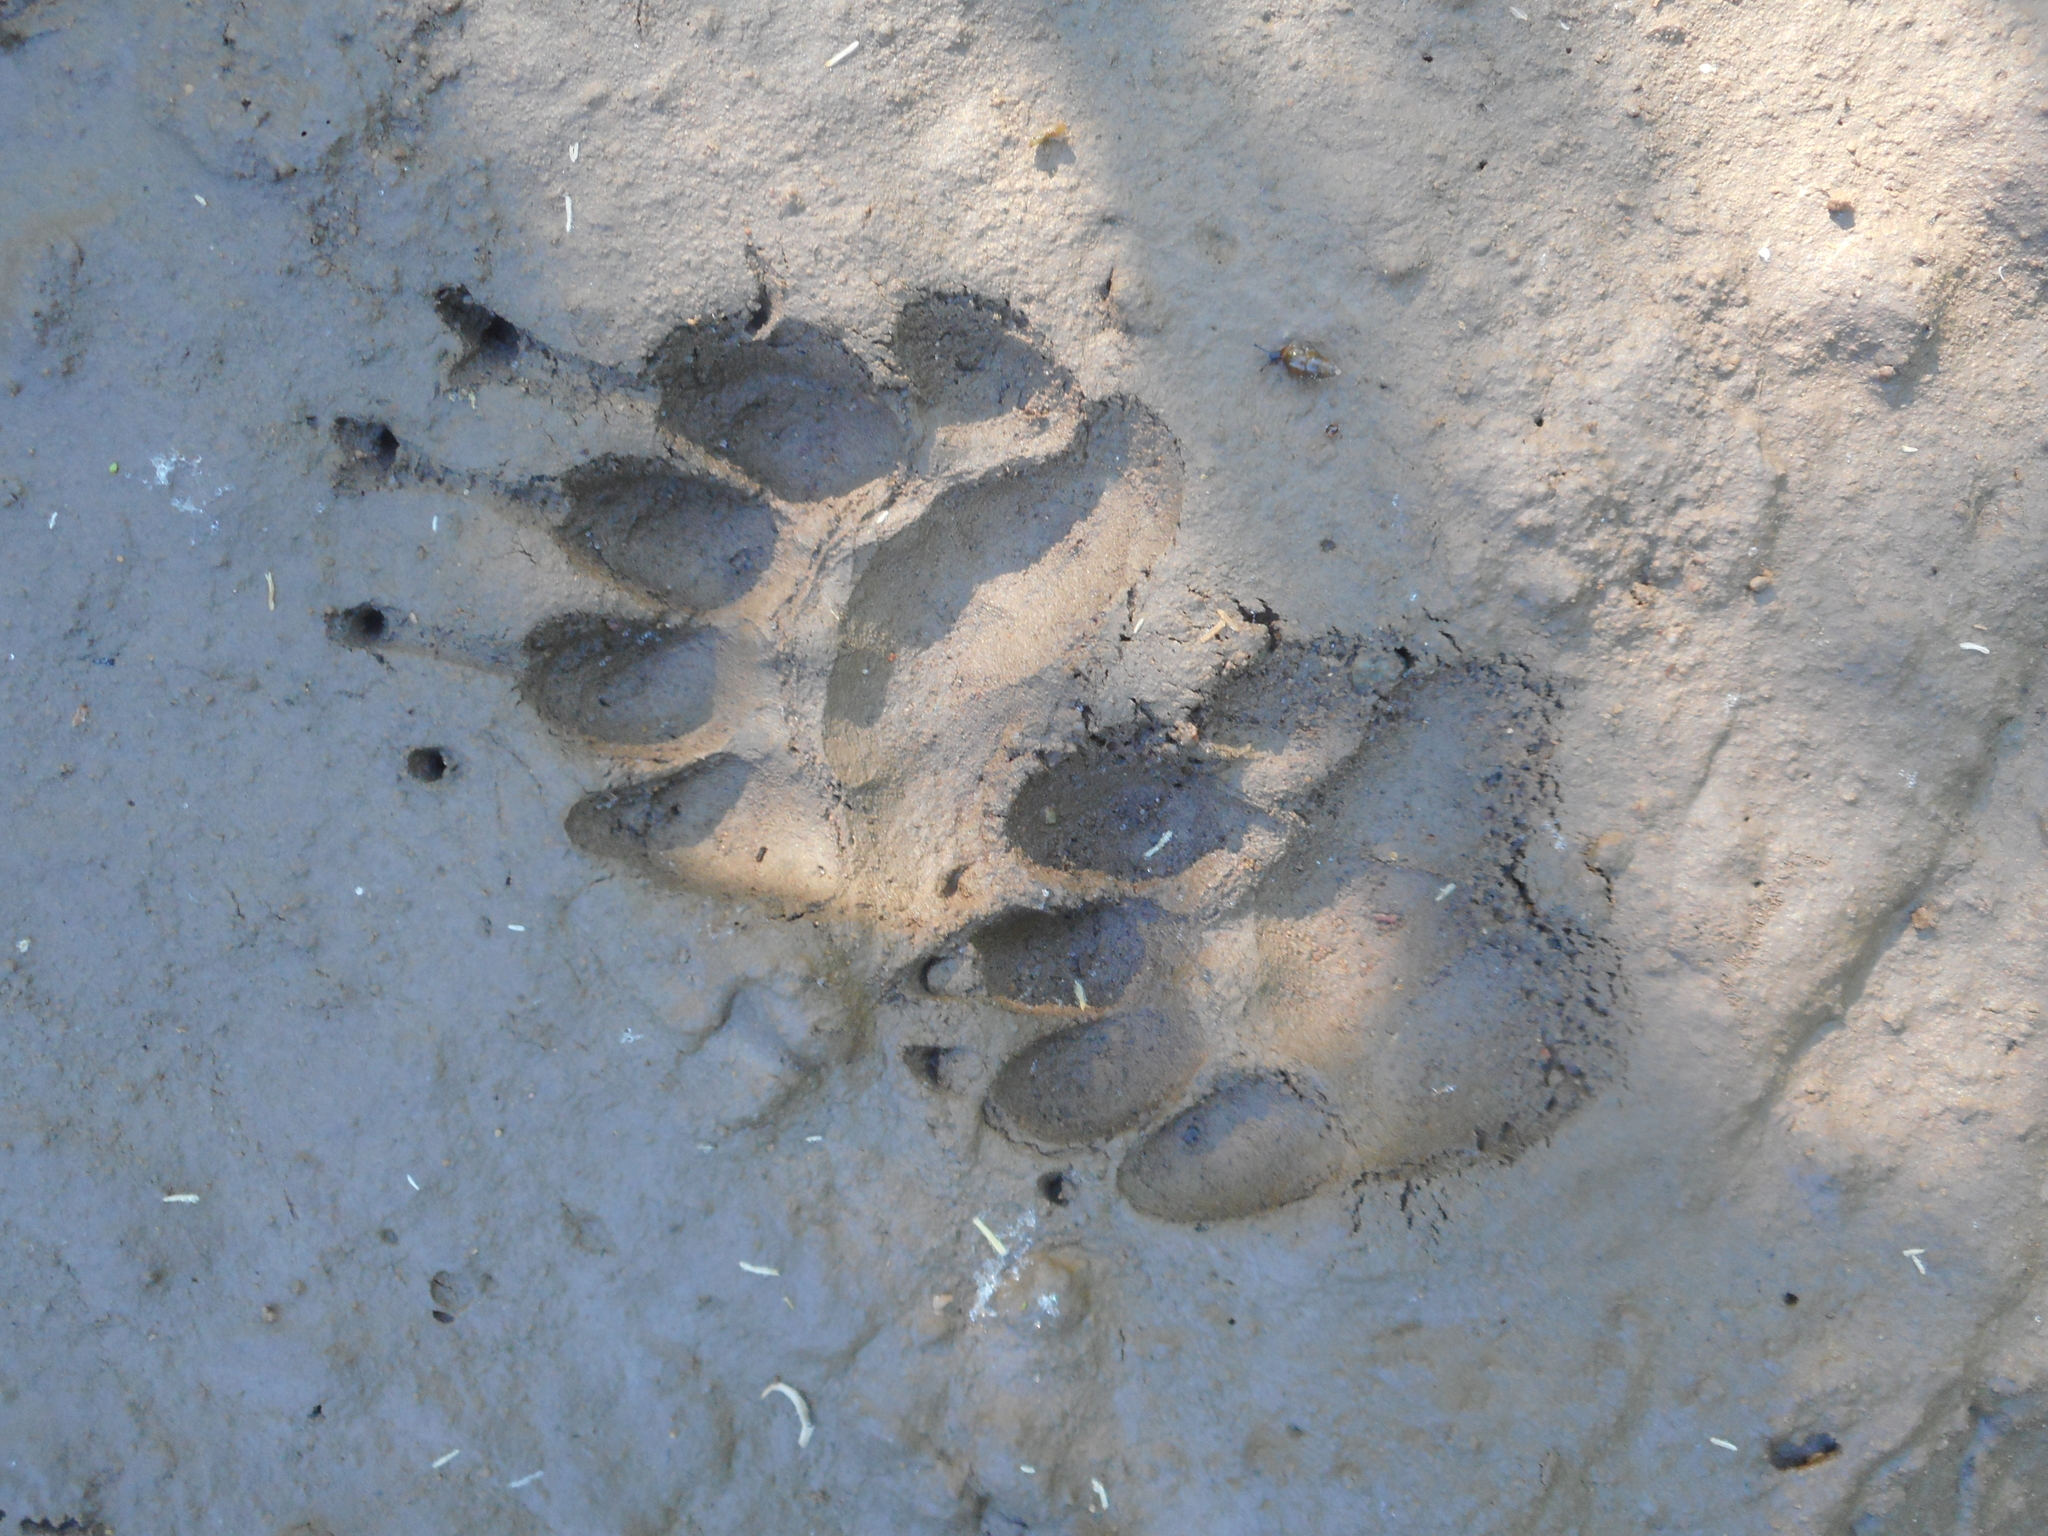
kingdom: Animalia
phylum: Chordata
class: Mammalia
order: Carnivora
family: Mustelidae
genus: Meles
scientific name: Meles meles
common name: Eurasian badger
